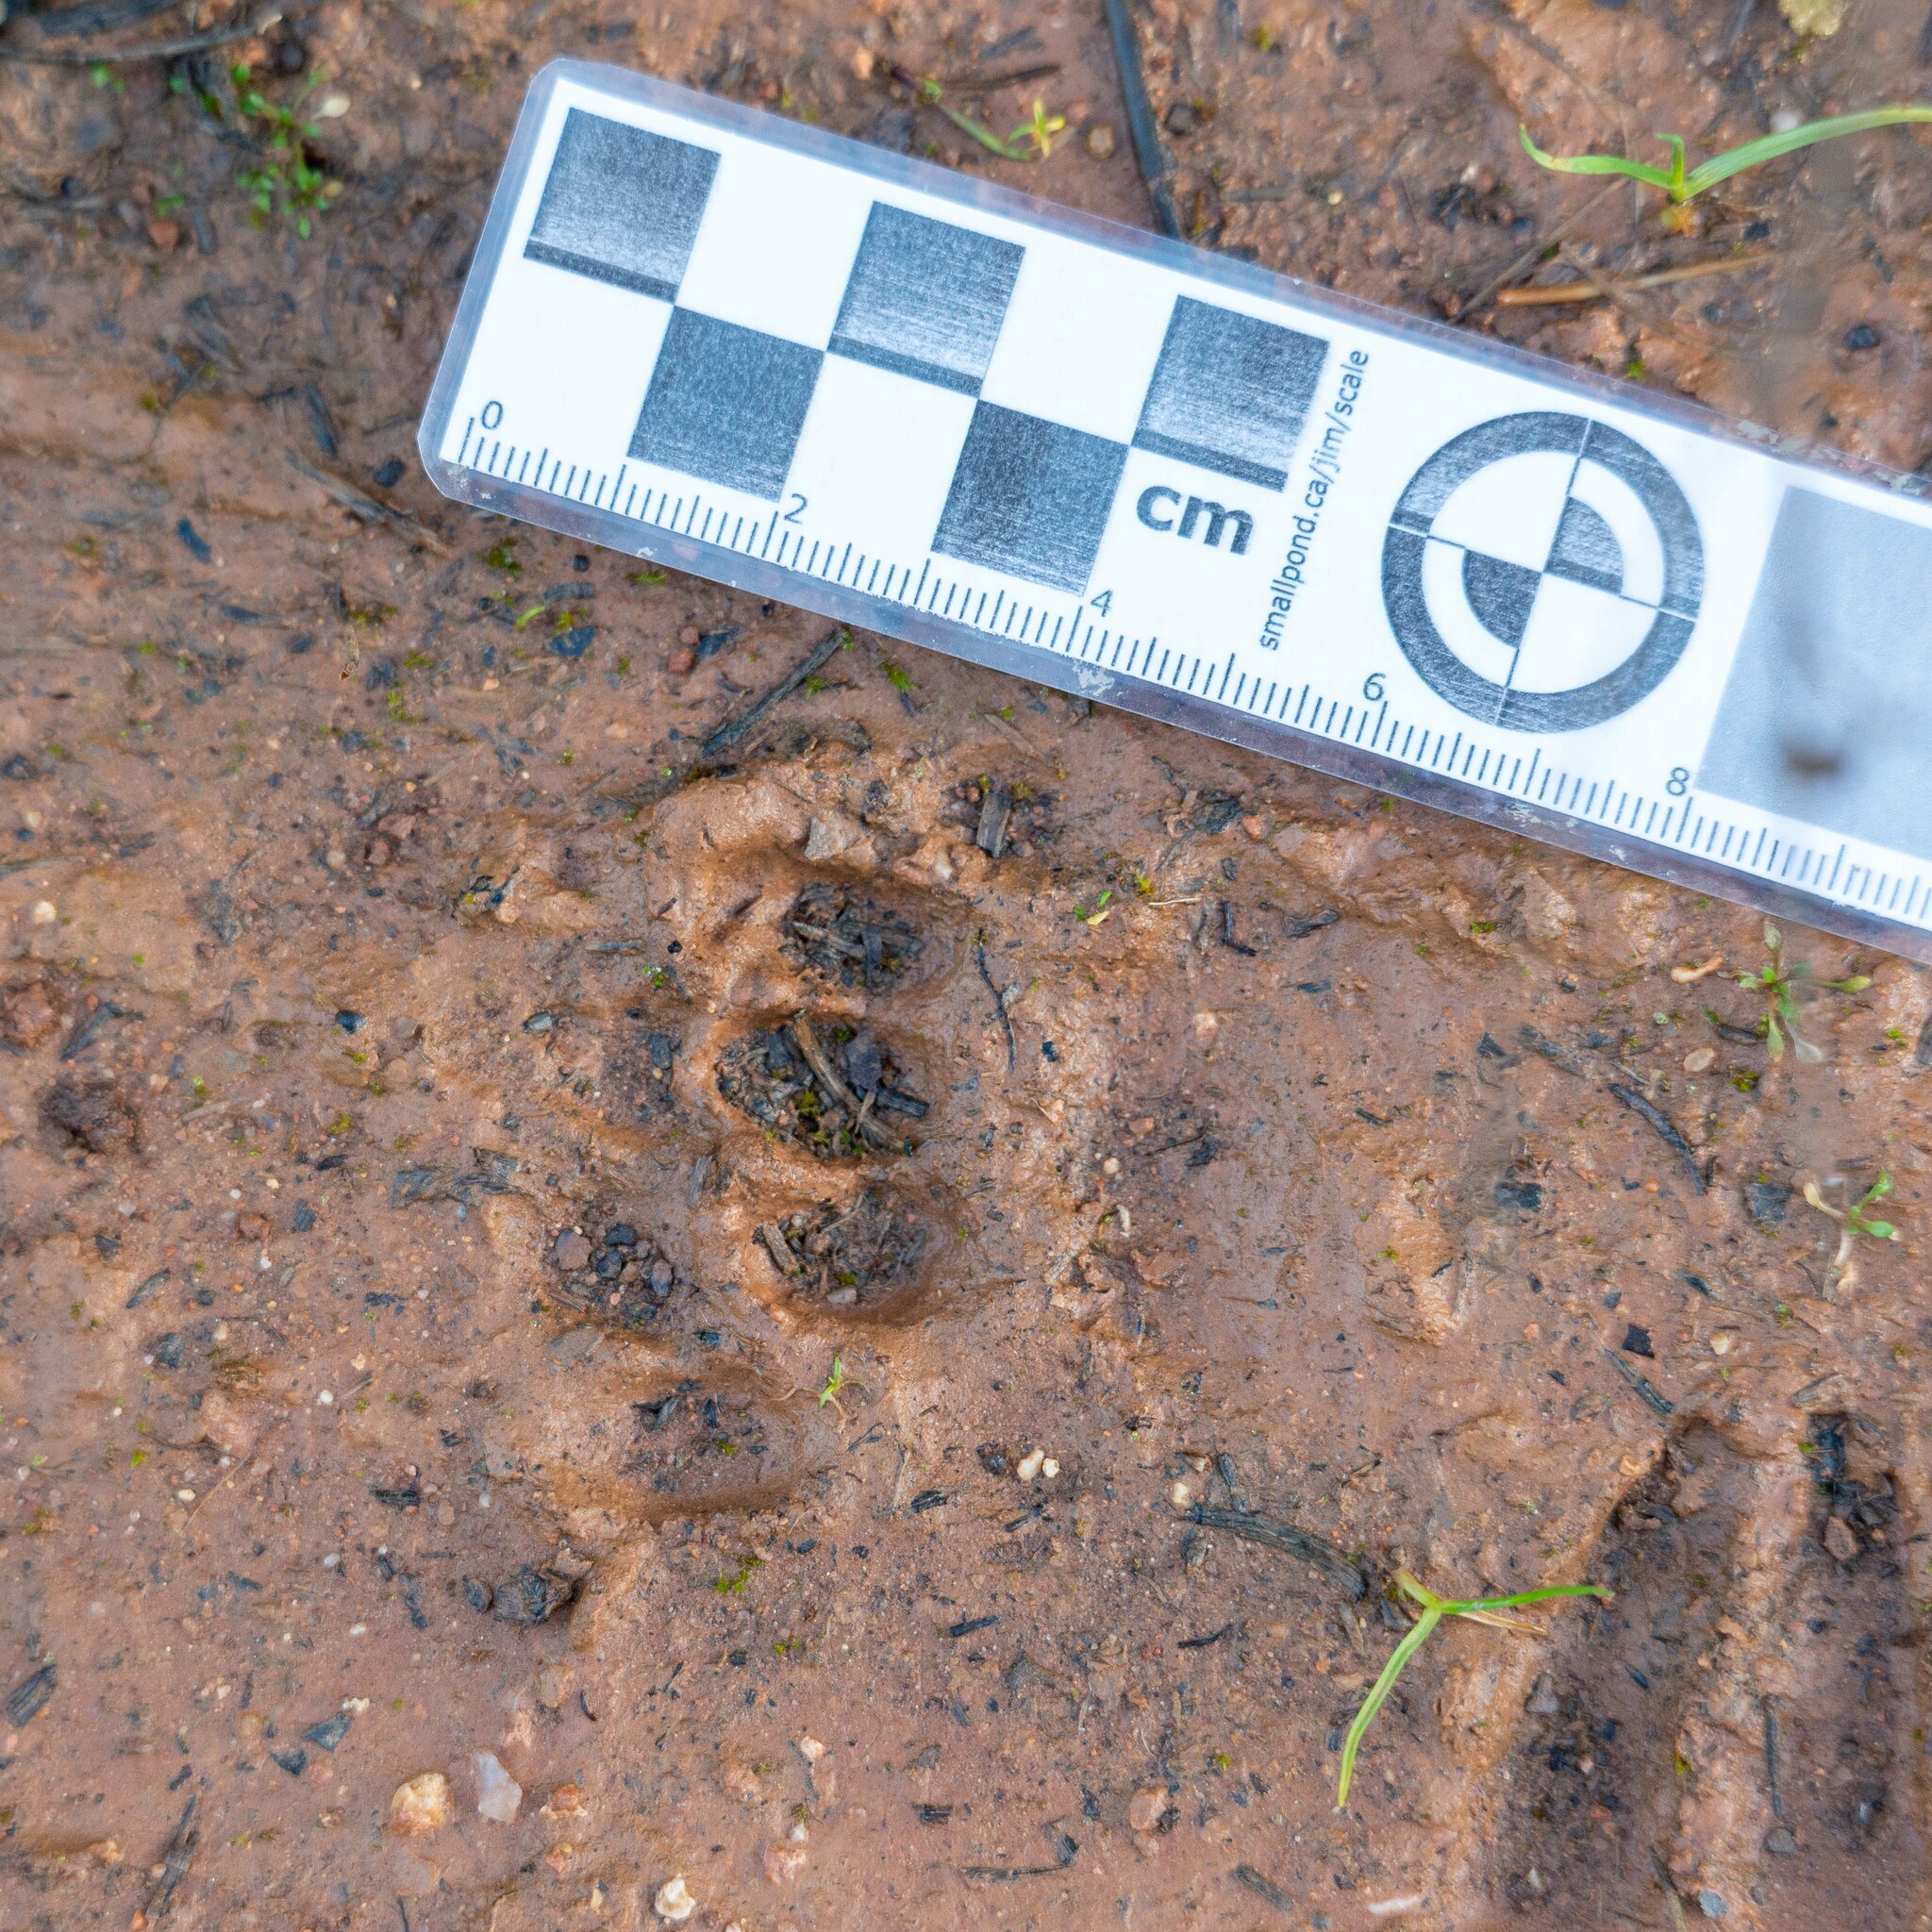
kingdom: Animalia
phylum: Chordata
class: Mammalia
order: Carnivora
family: Mustelidae
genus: Meles
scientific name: Meles meles
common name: Eurasian badger
